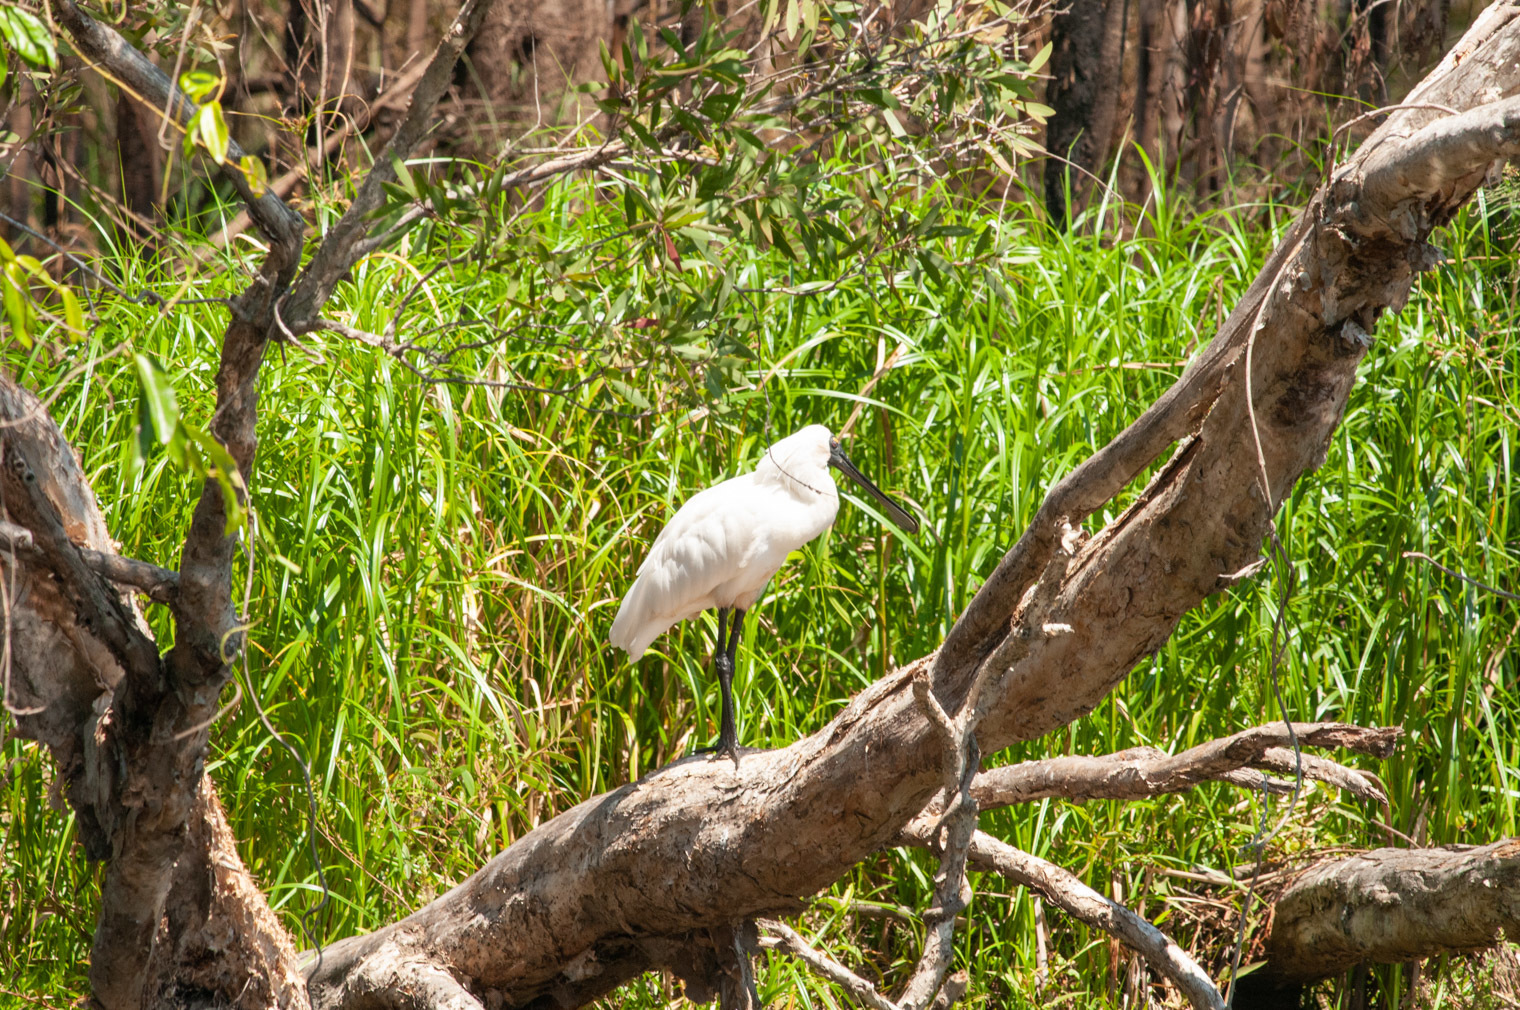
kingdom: Animalia
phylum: Chordata
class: Aves
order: Pelecaniformes
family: Threskiornithidae
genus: Platalea
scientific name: Platalea regia
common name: Royal spoonbill
